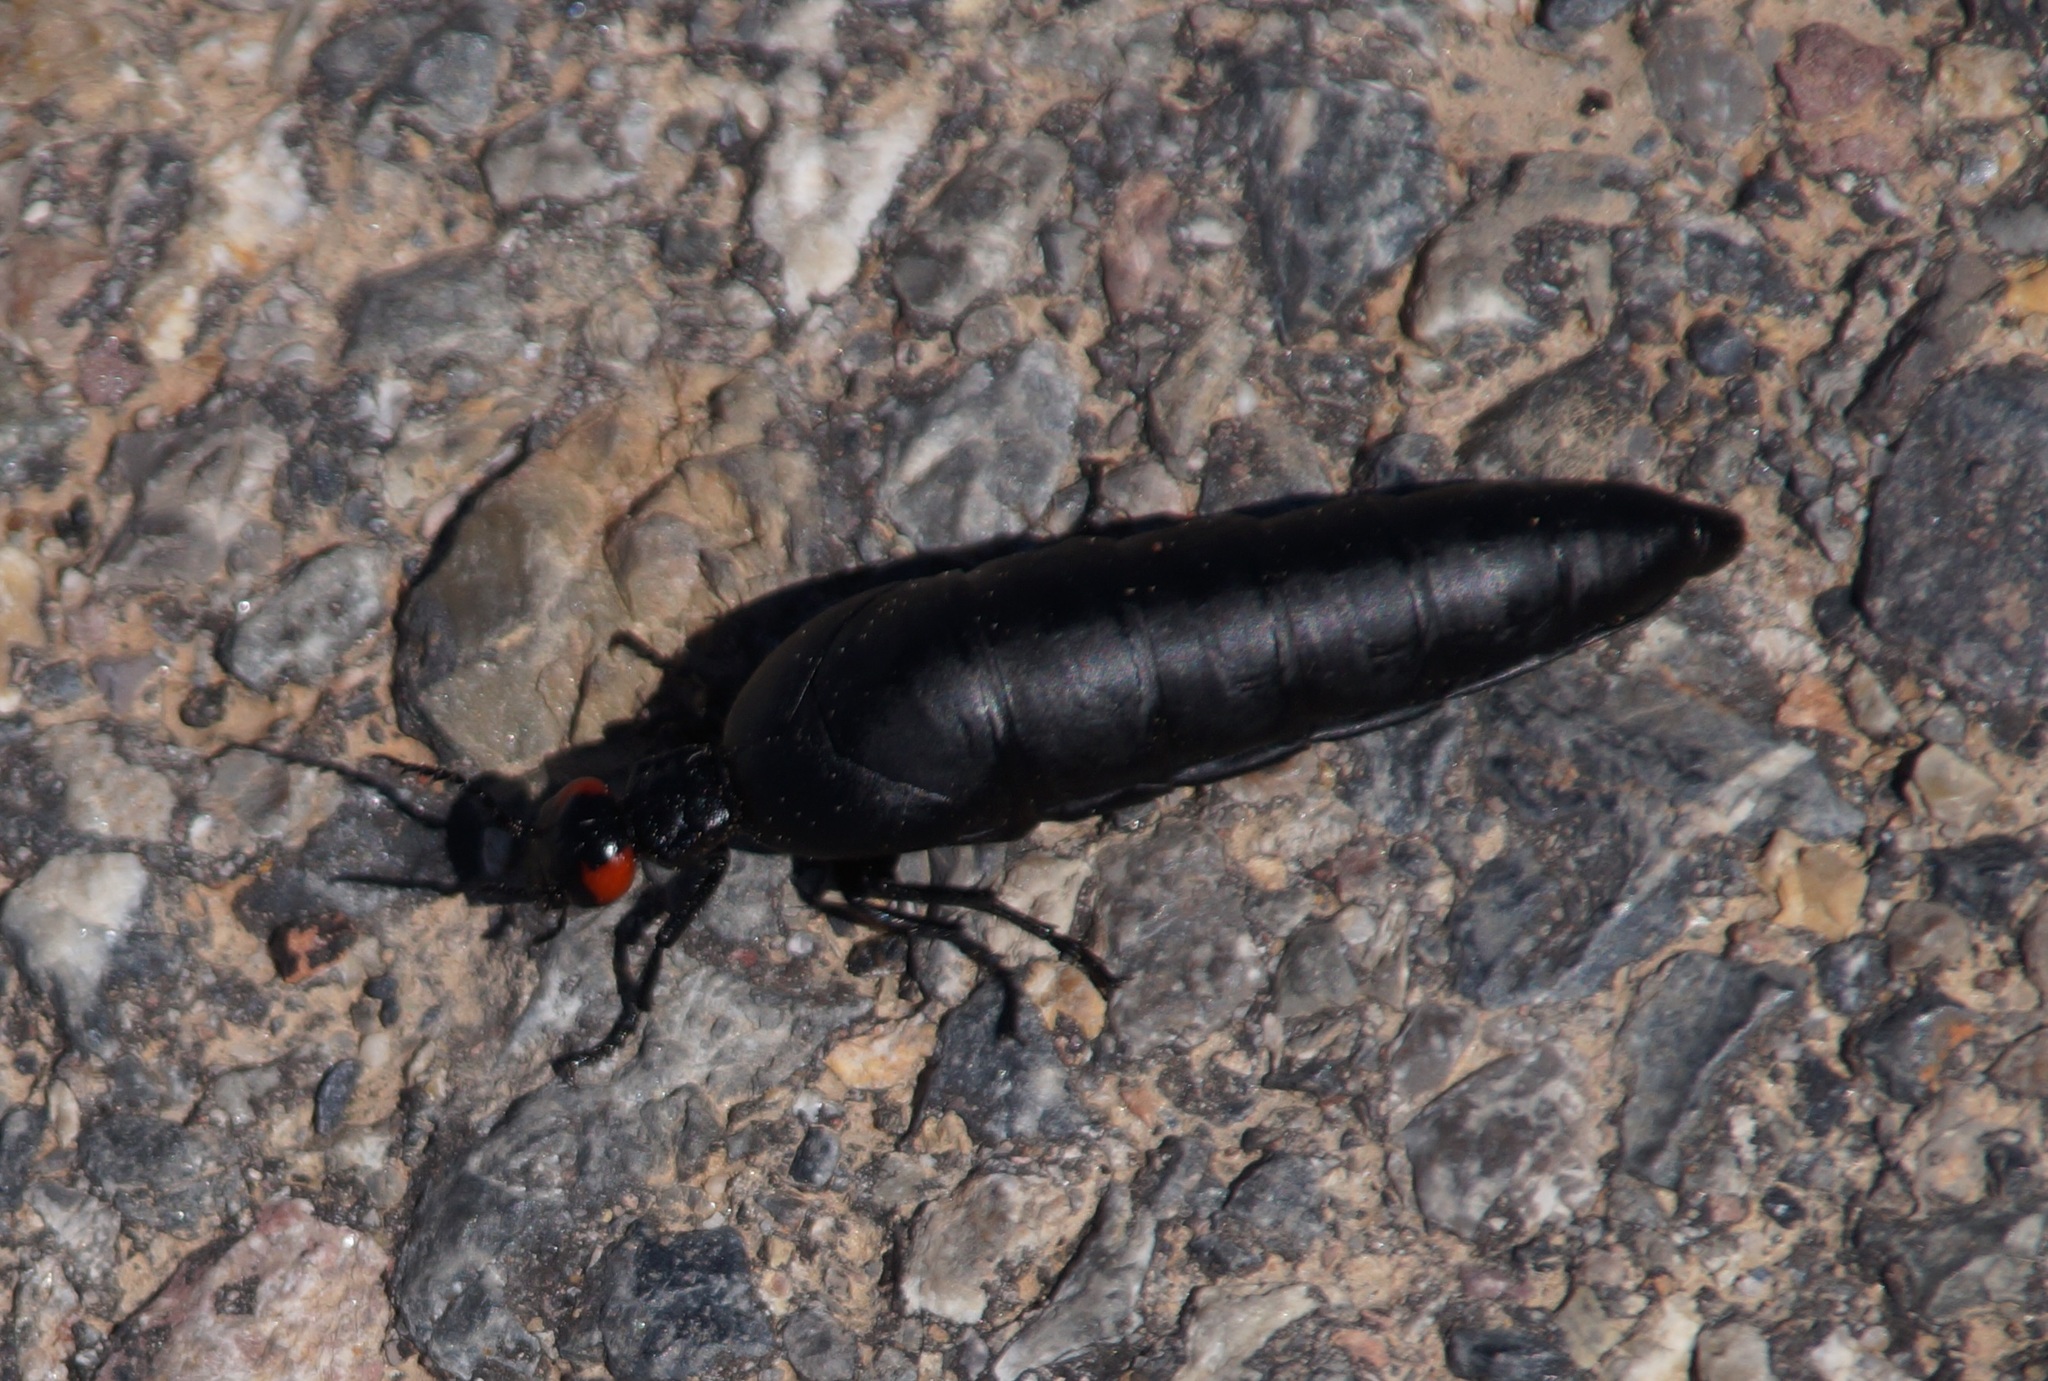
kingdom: Animalia
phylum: Arthropoda
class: Insecta
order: Coleoptera
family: Meloidae
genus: Berberomeloe
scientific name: Berberomeloe insignis
